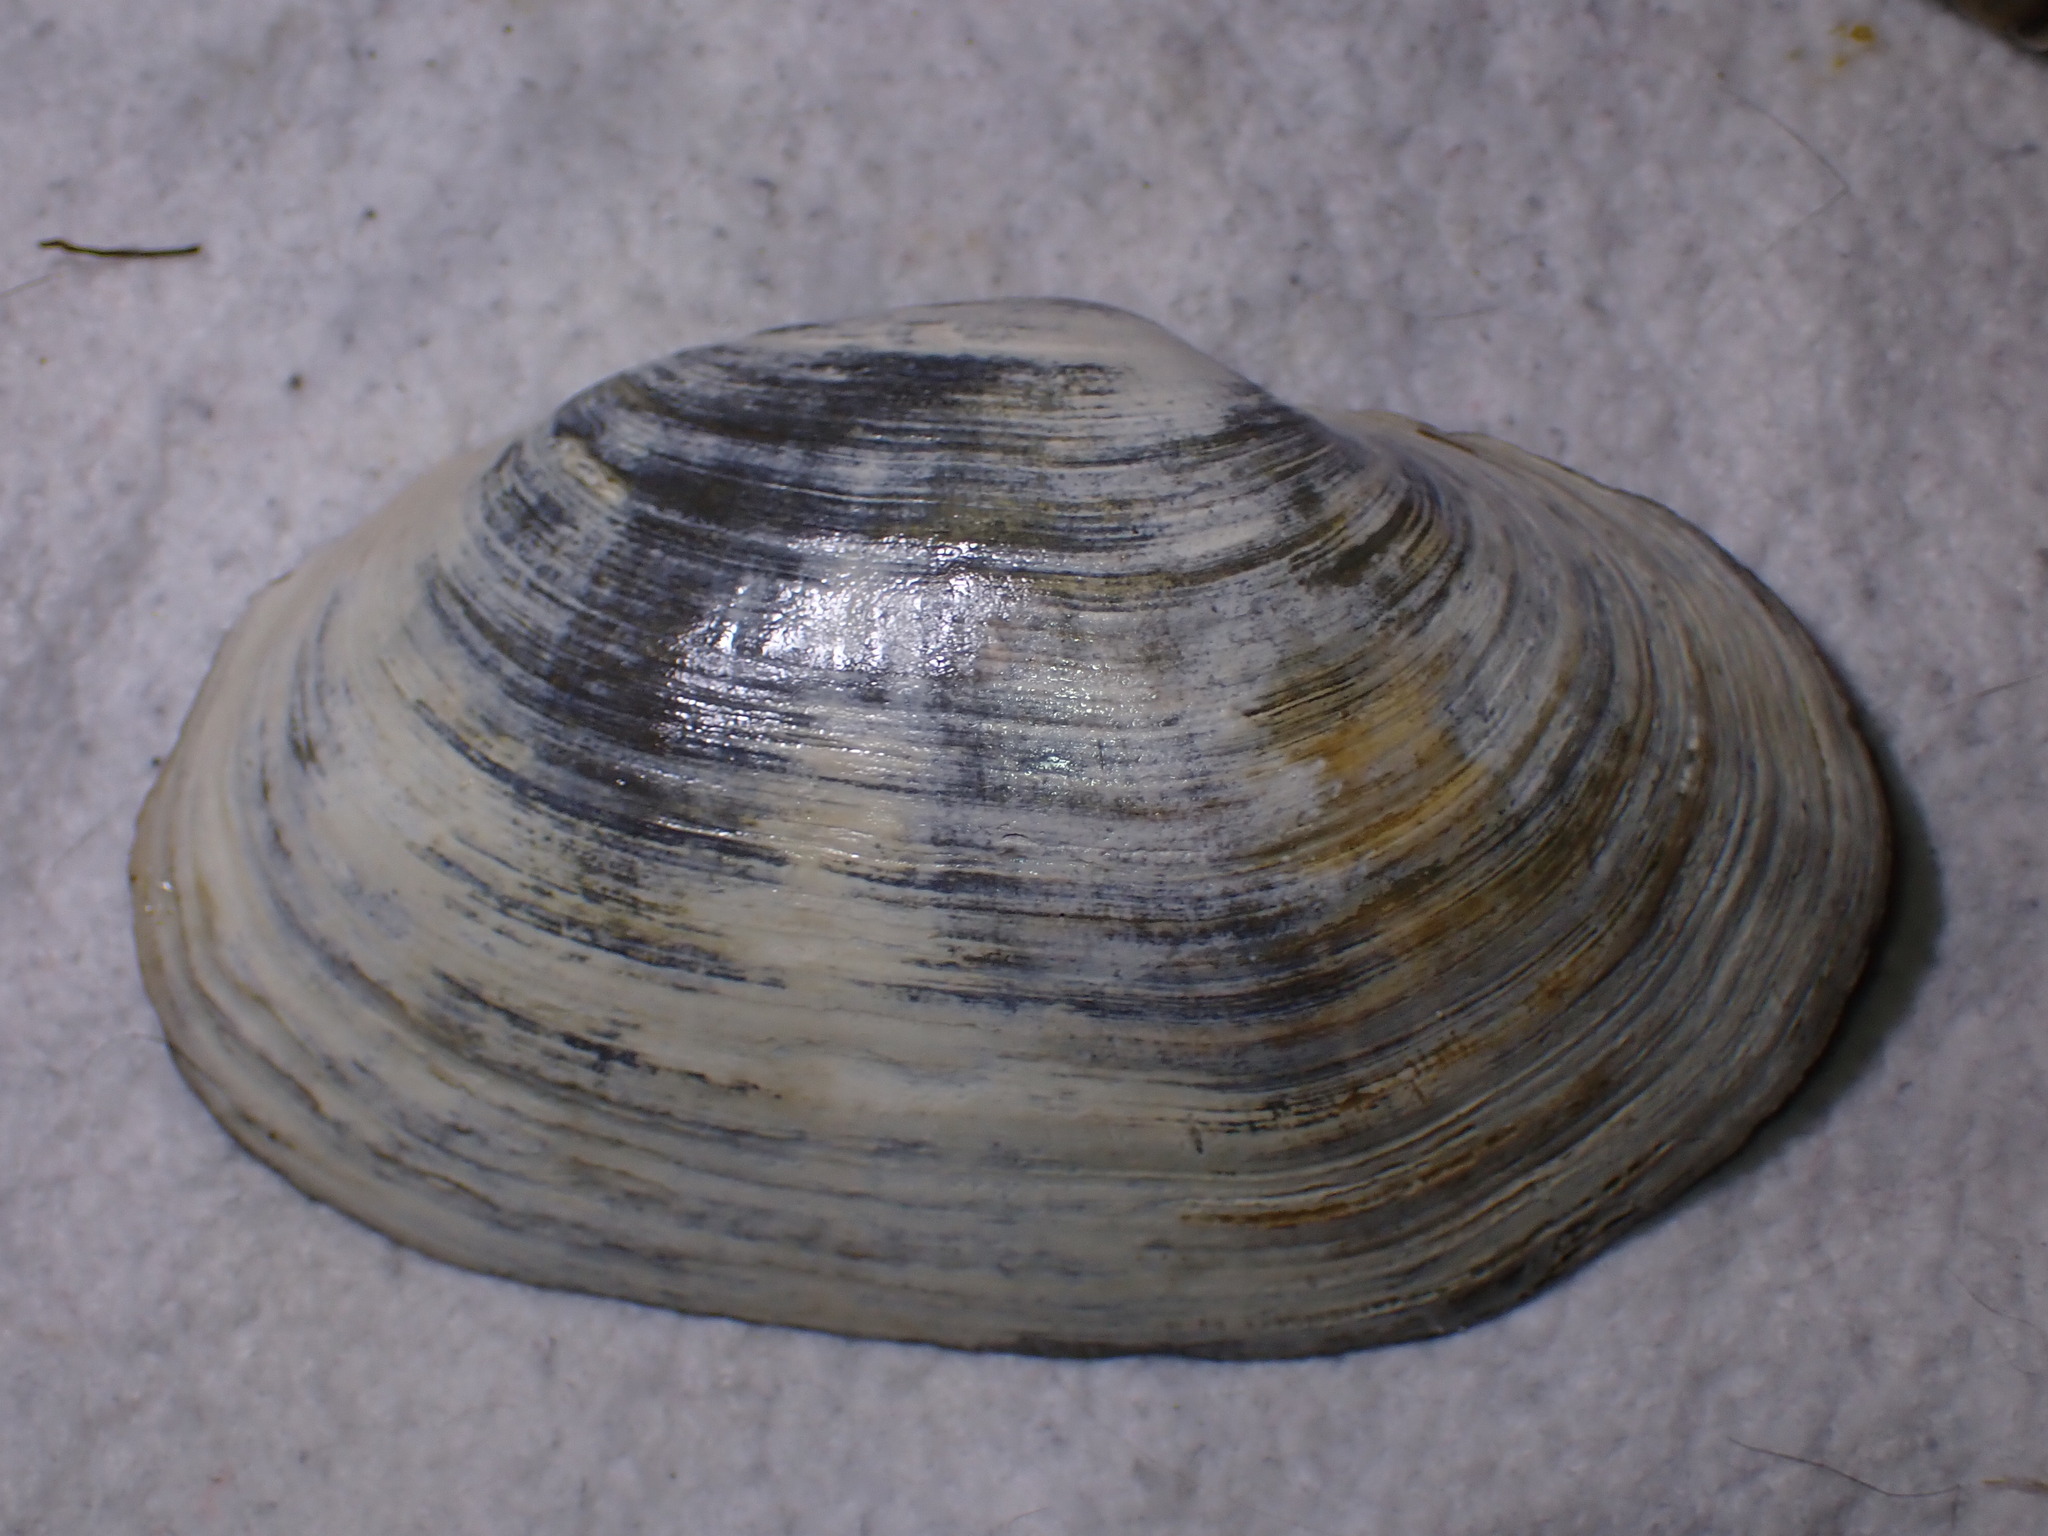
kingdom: Animalia
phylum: Mollusca
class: Bivalvia
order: Myida
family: Myidae
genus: Mya
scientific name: Mya arenaria
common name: Soft-shelled clam
